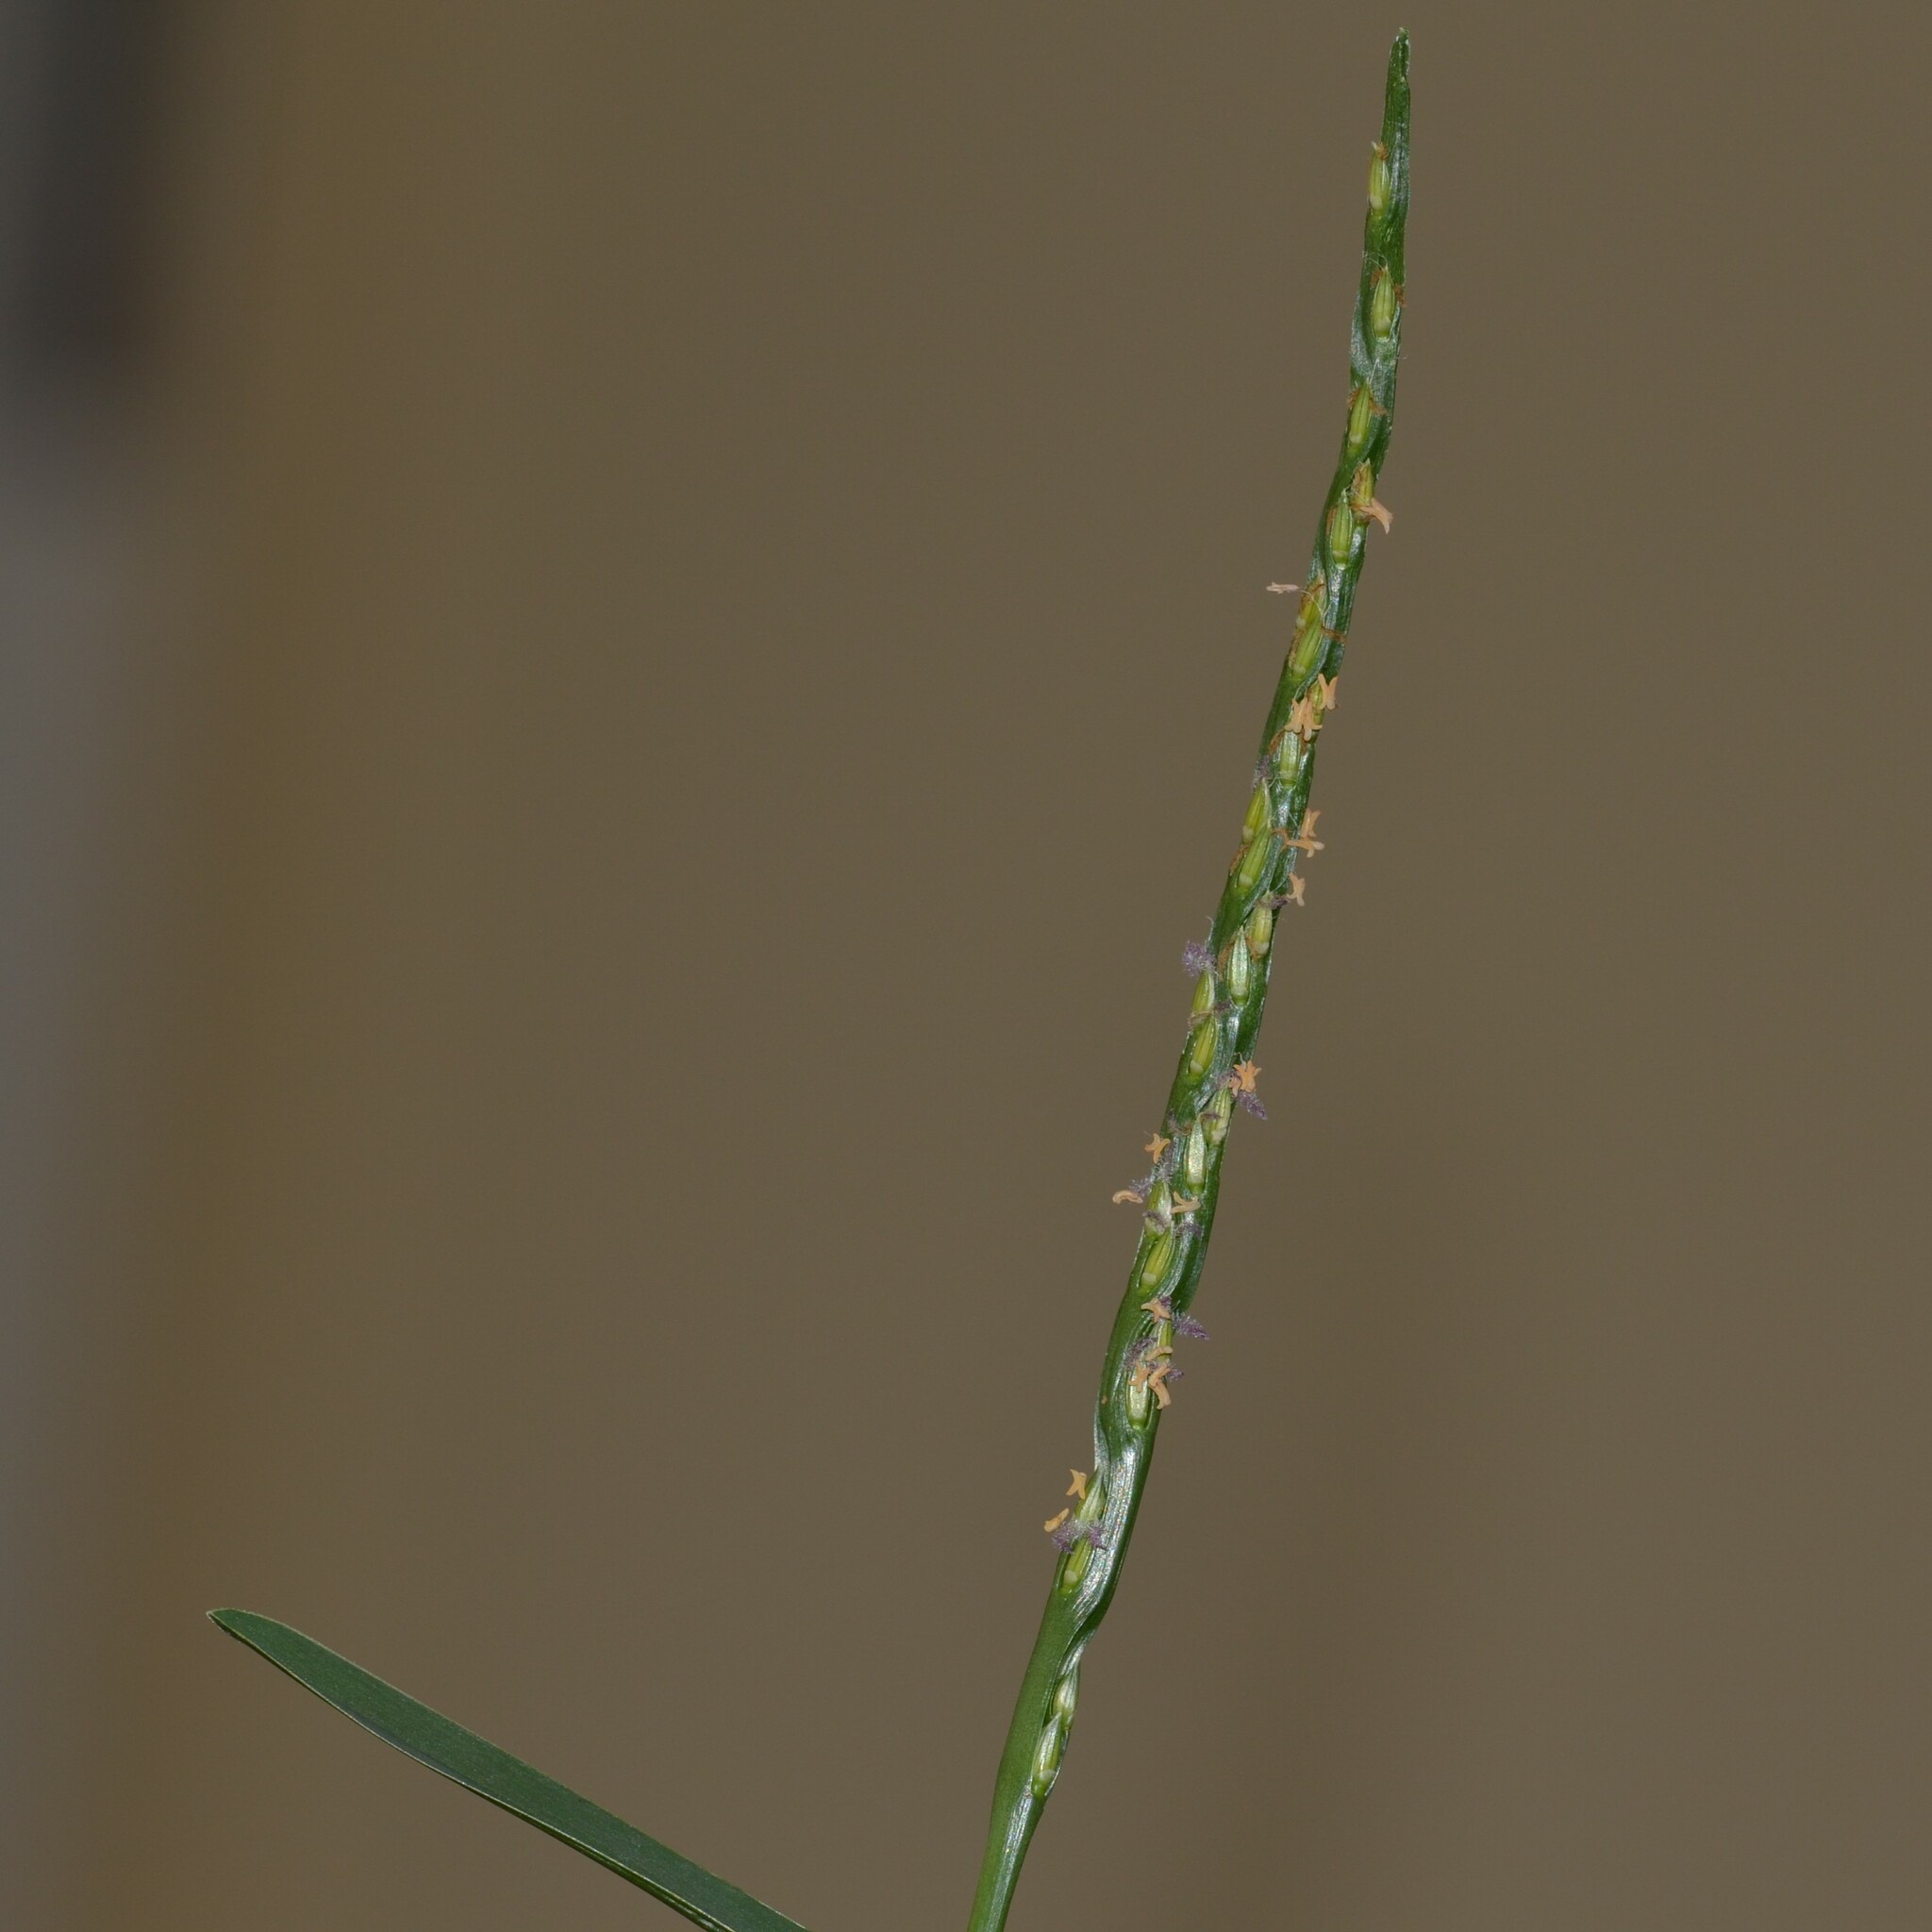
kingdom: Plantae
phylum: Tracheophyta
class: Liliopsida
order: Poales
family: Poaceae
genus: Stenotaphrum
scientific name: Stenotaphrum secundatum
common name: St. augustine grass
